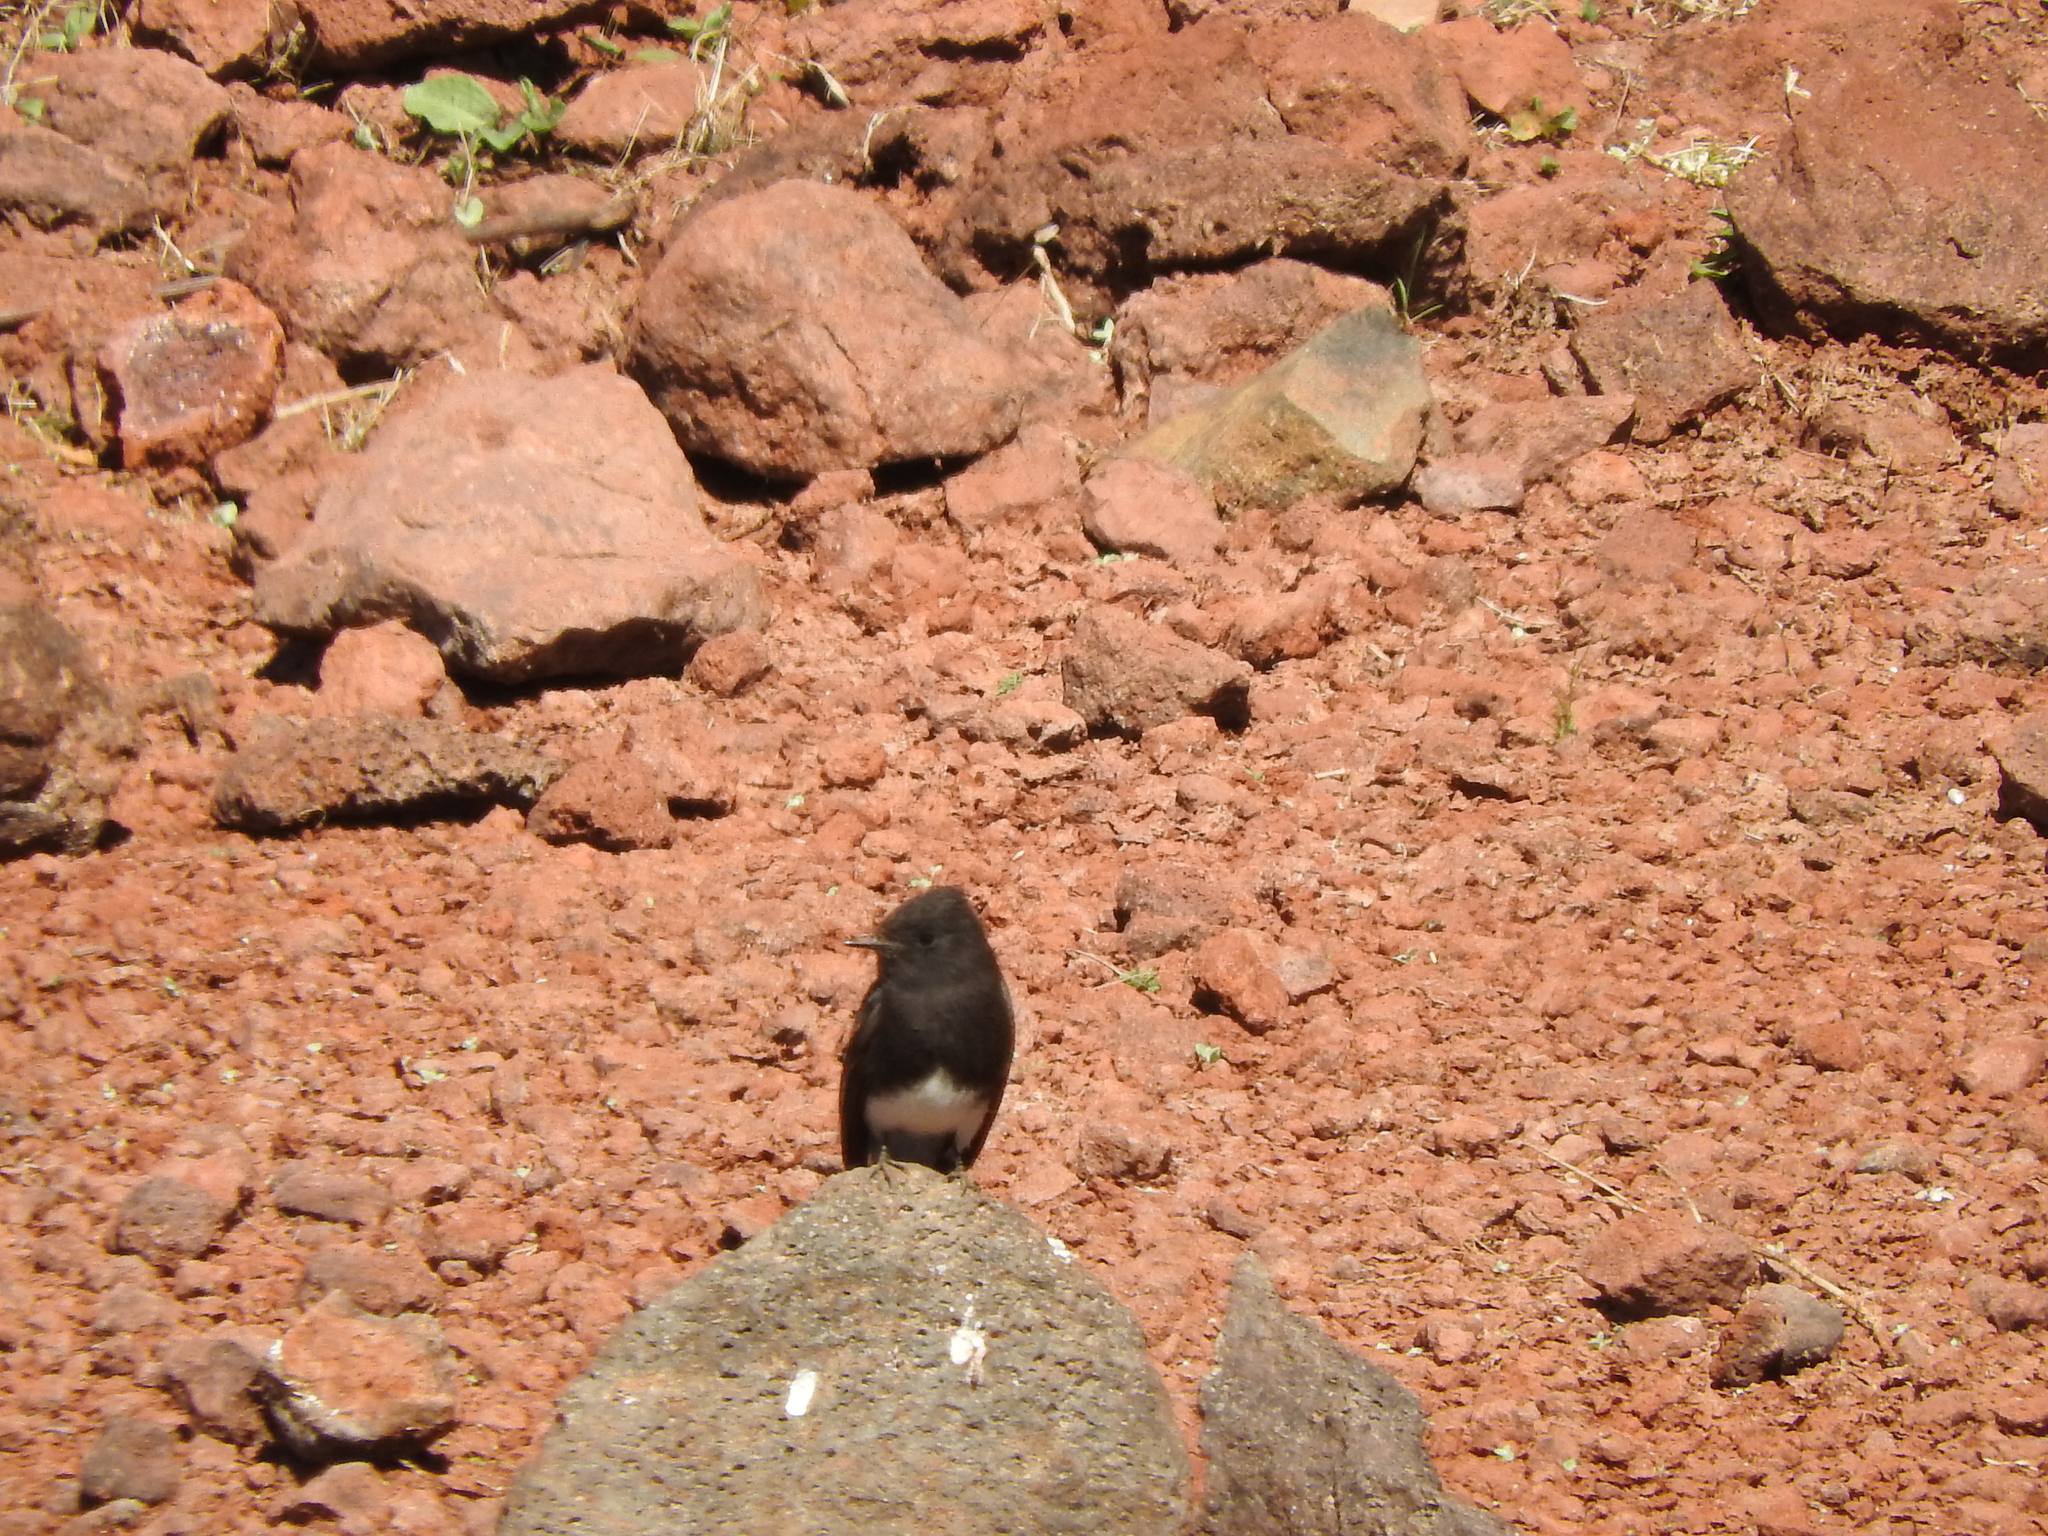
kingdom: Animalia
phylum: Chordata
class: Aves
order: Passeriformes
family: Tyrannidae
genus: Sayornis
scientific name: Sayornis nigricans
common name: Black phoebe
